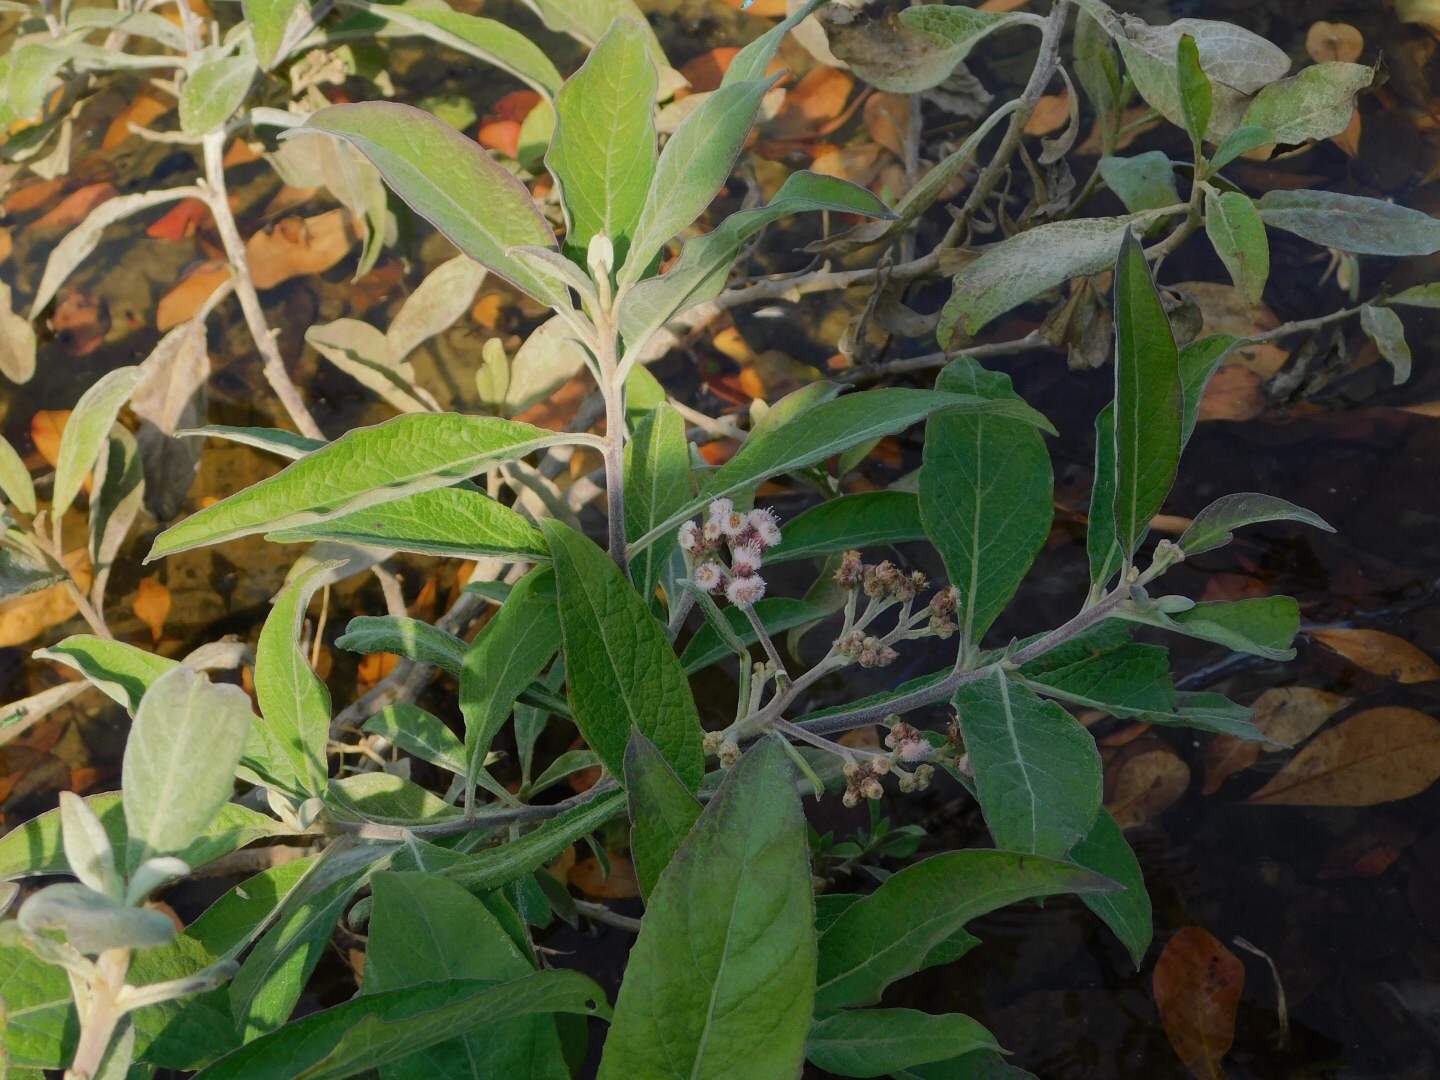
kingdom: Plantae
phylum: Tracheophyta
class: Magnoliopsida
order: Asterales
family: Asteraceae
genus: Pluchea
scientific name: Pluchea carolinensis
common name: Marsh fleabane
